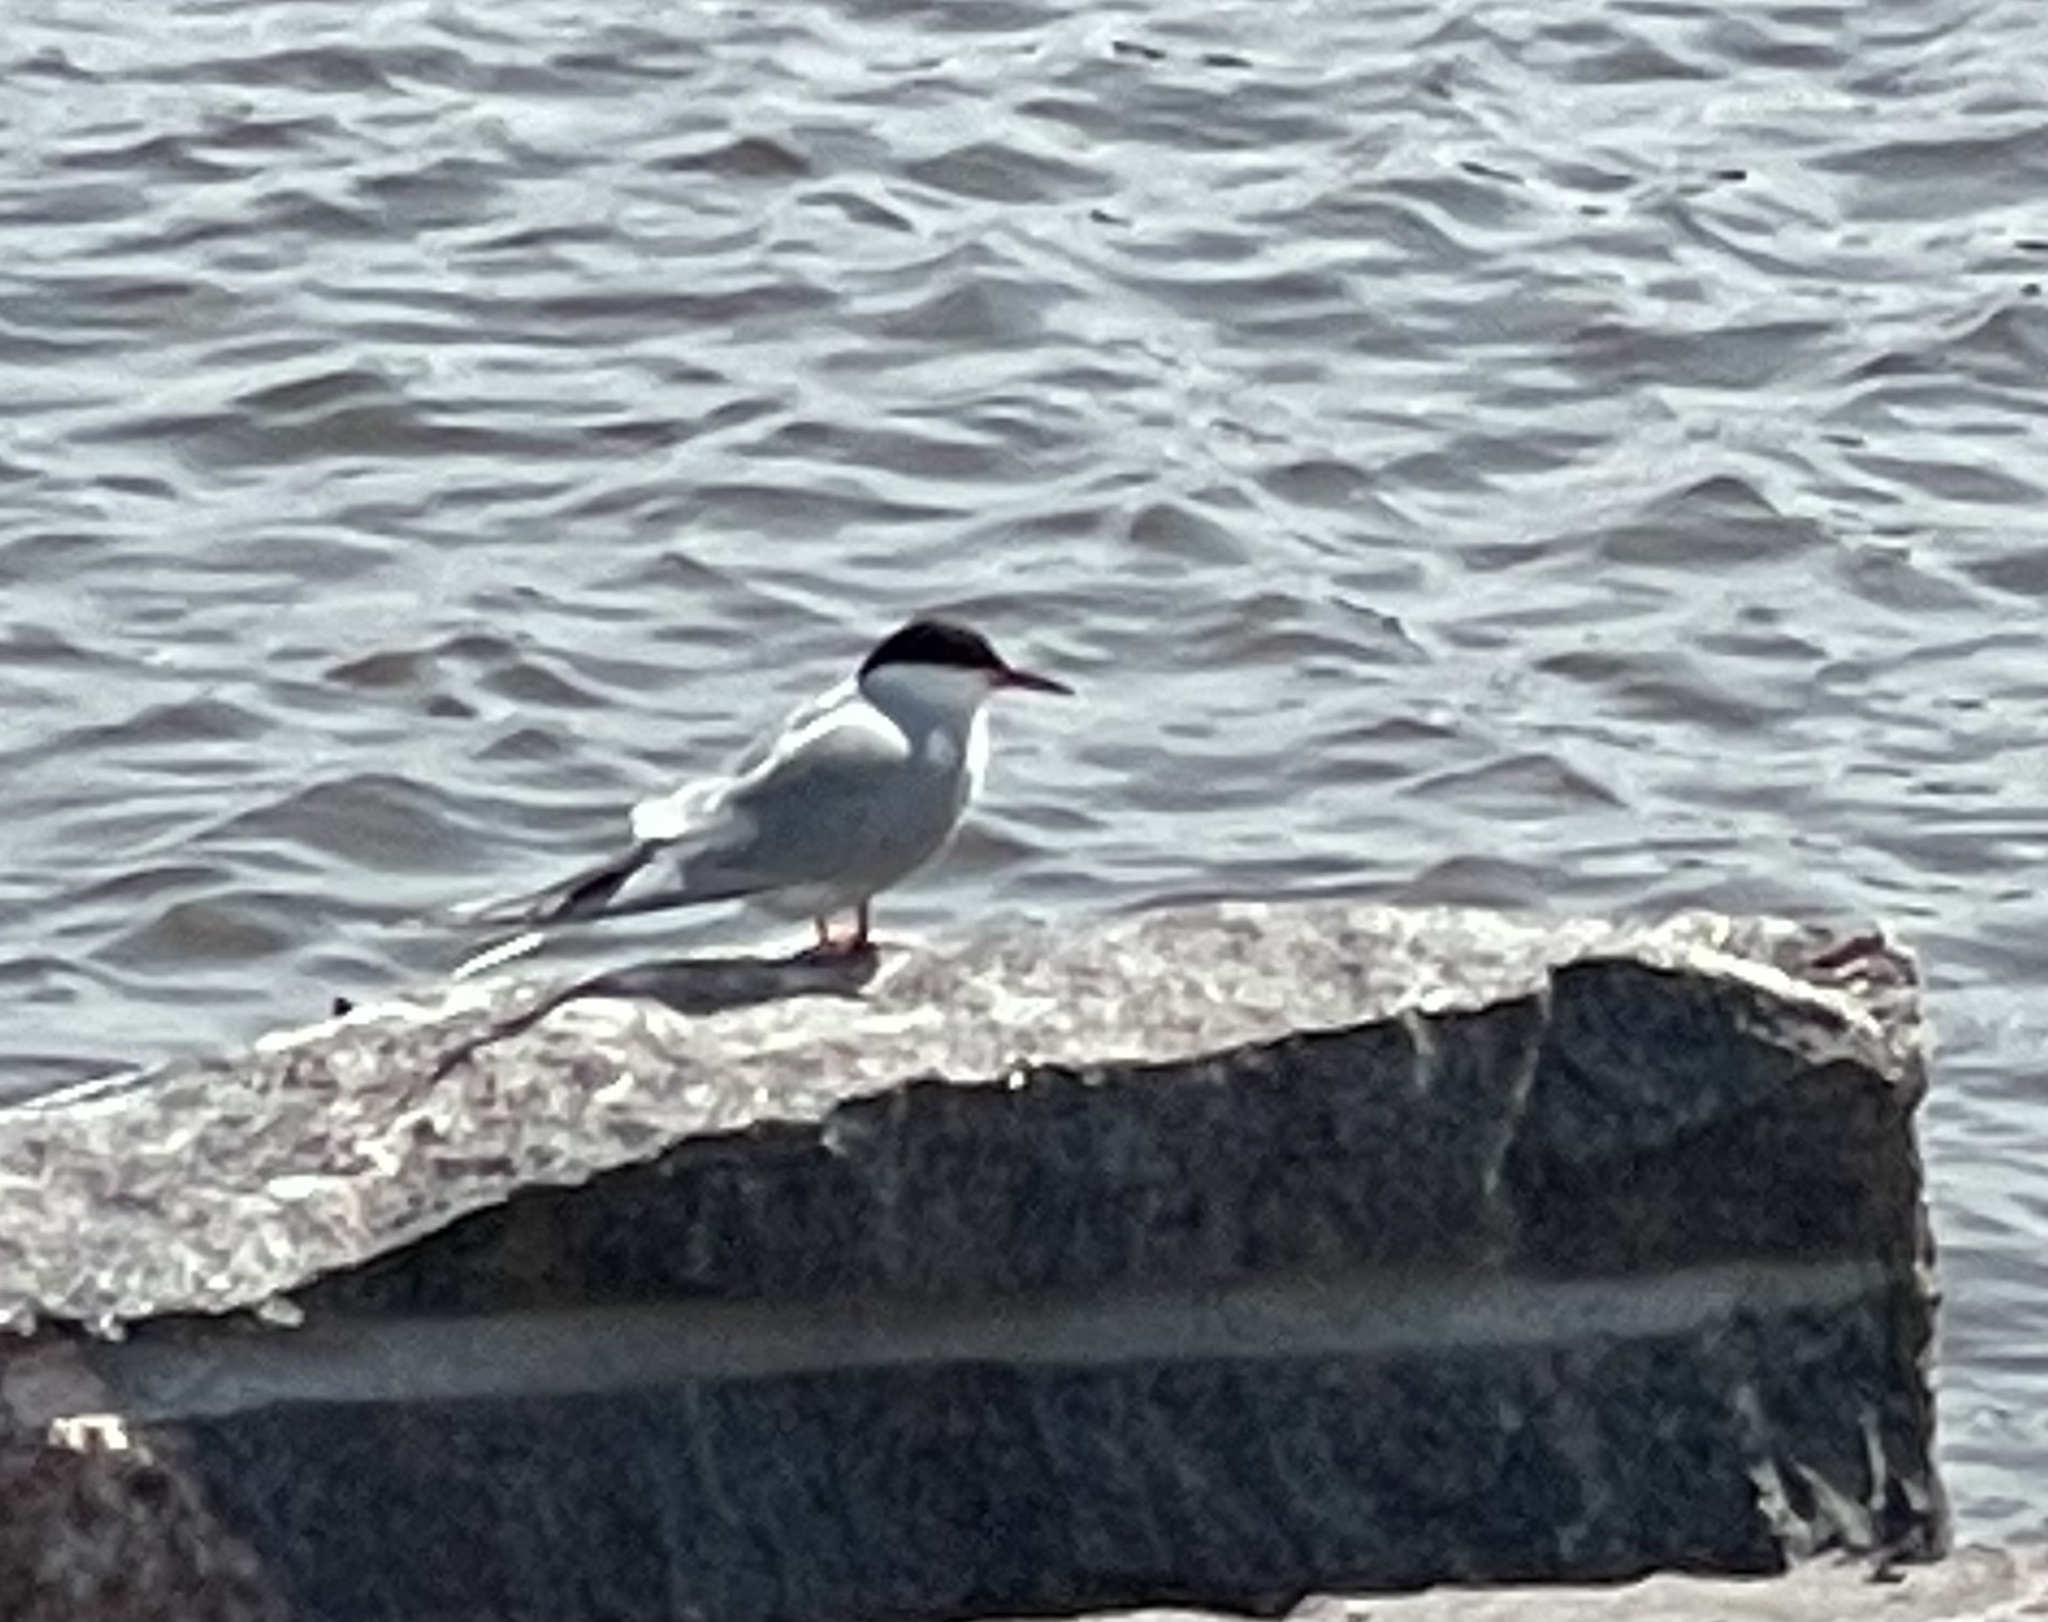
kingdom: Animalia
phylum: Chordata
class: Aves
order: Charadriiformes
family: Laridae
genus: Sterna
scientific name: Sterna hirundo
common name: Common tern
